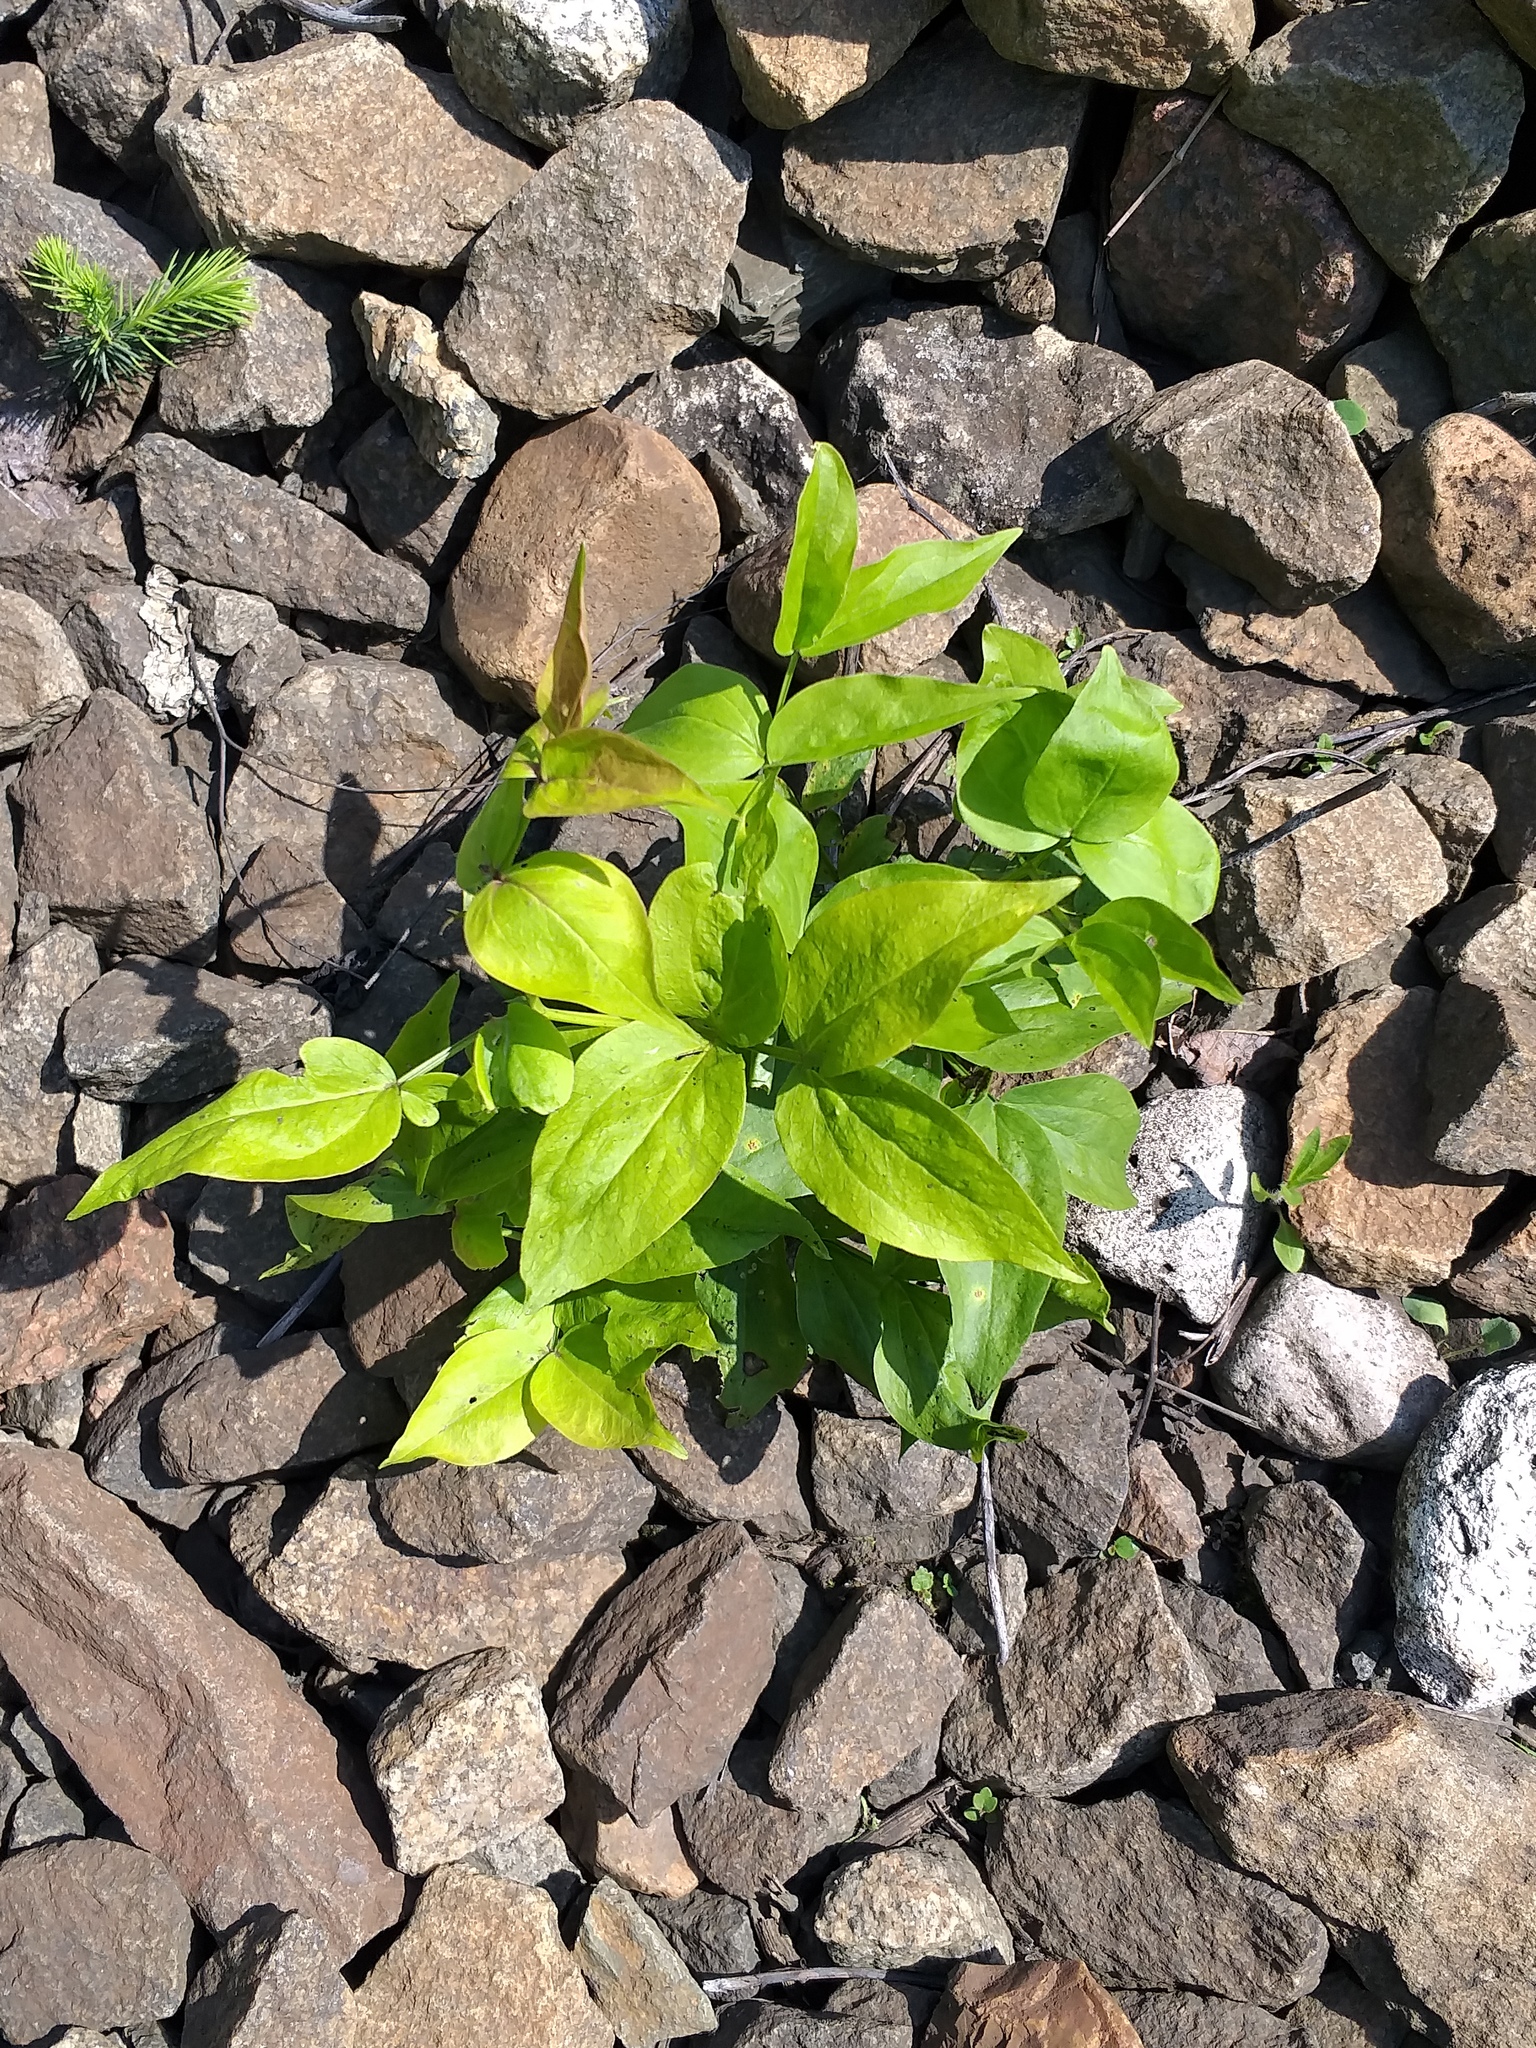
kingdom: Plantae
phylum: Tracheophyta
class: Magnoliopsida
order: Fabales
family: Fabaceae
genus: Lathyrus
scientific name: Lathyrus vernus
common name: Spring pea
